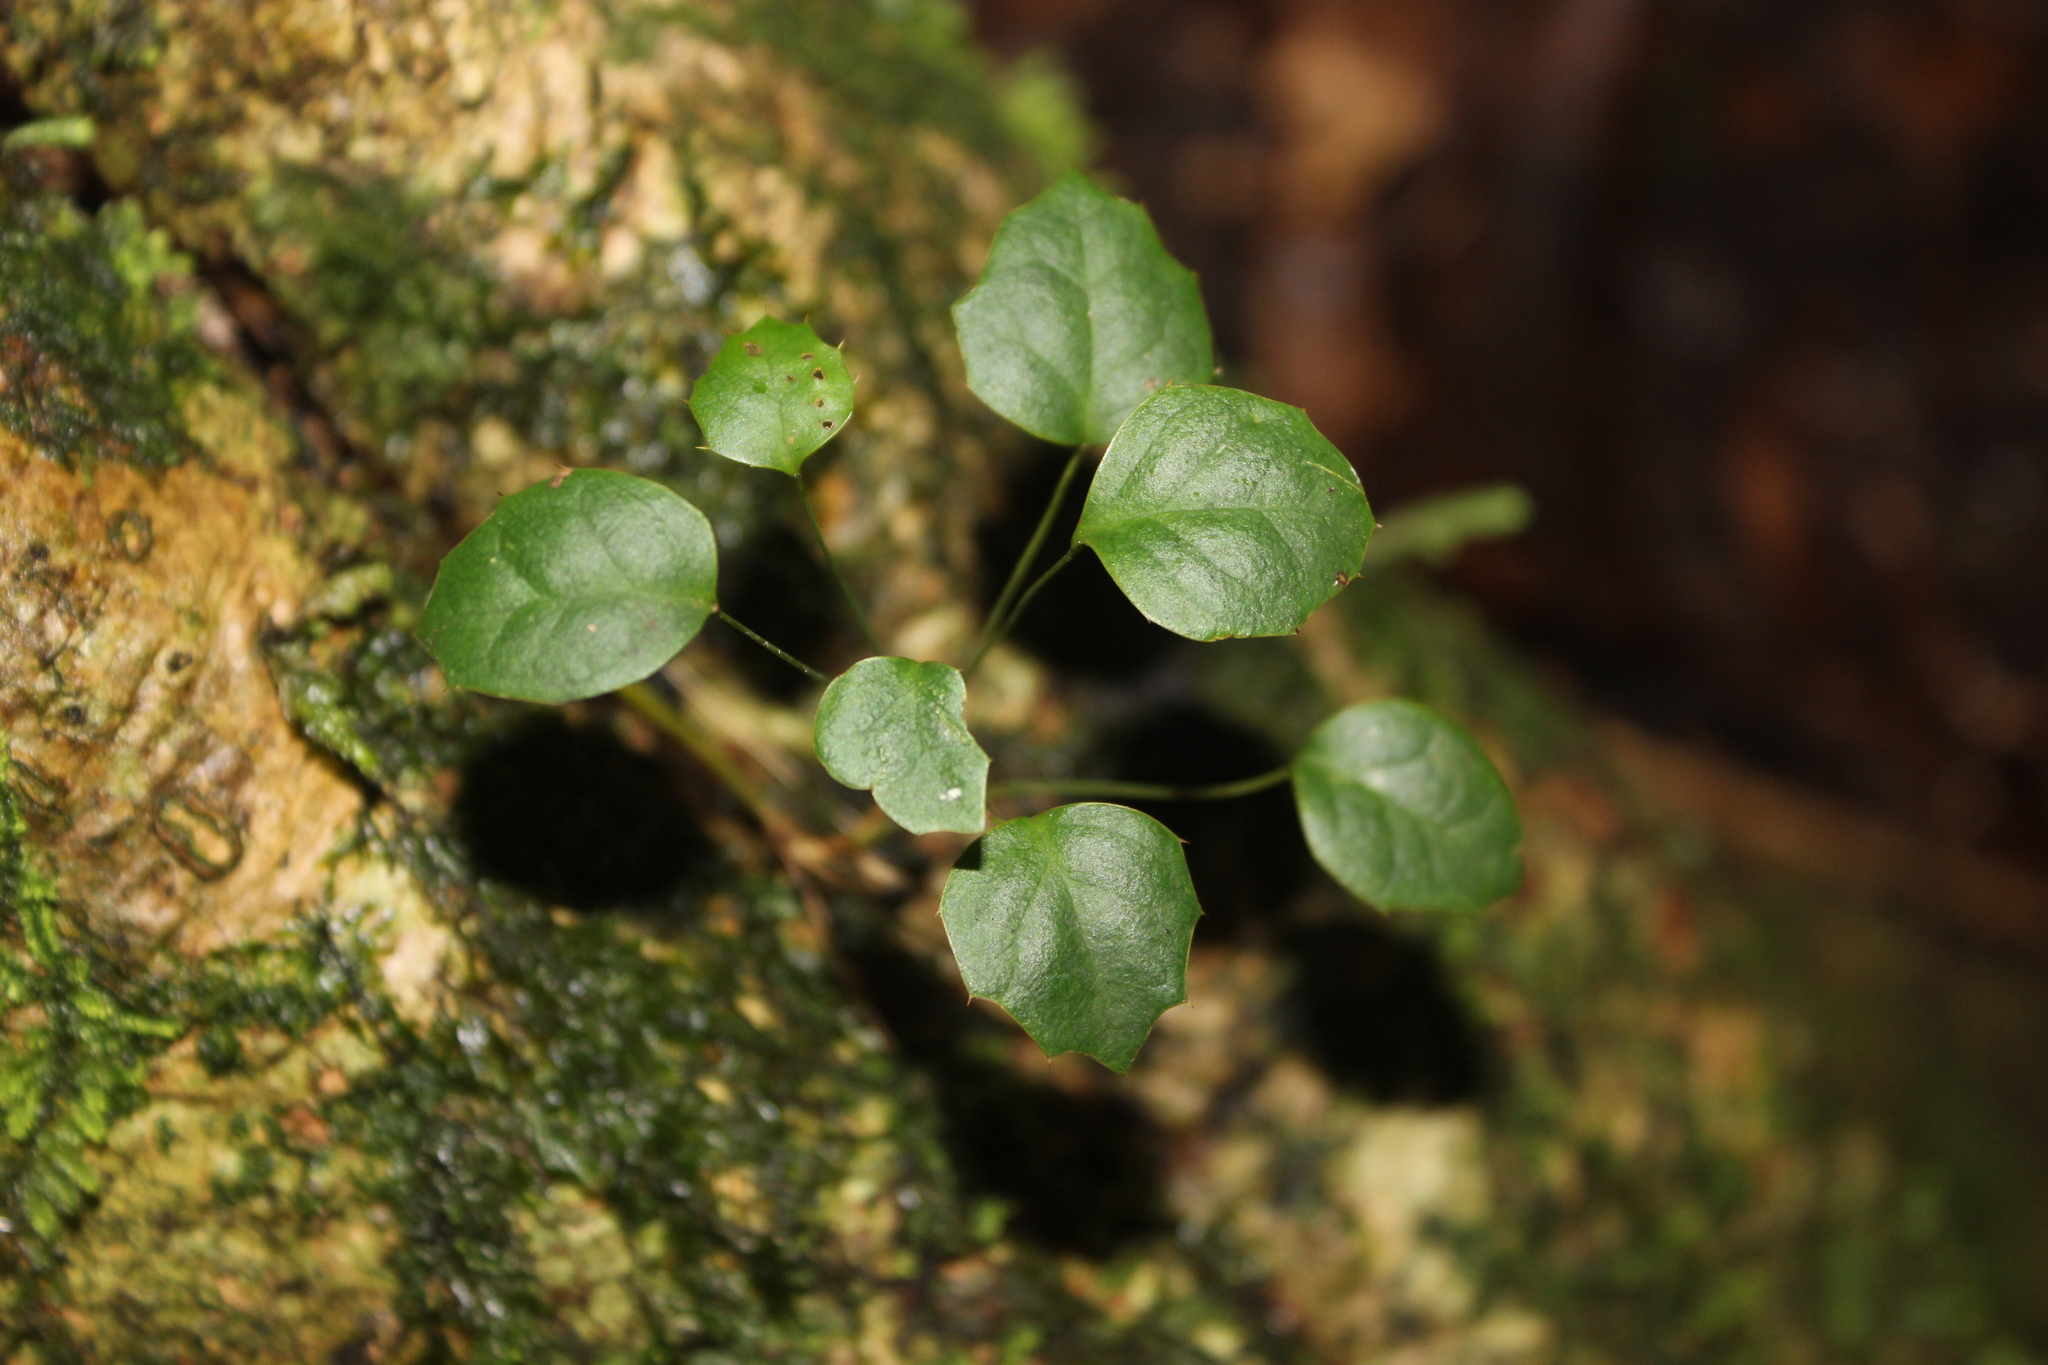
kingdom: Plantae
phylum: Tracheophyta
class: Magnoliopsida
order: Ranunculales
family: Berberidaceae
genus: Berberis
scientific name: Berberis darwinii
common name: Darwin's barberry
